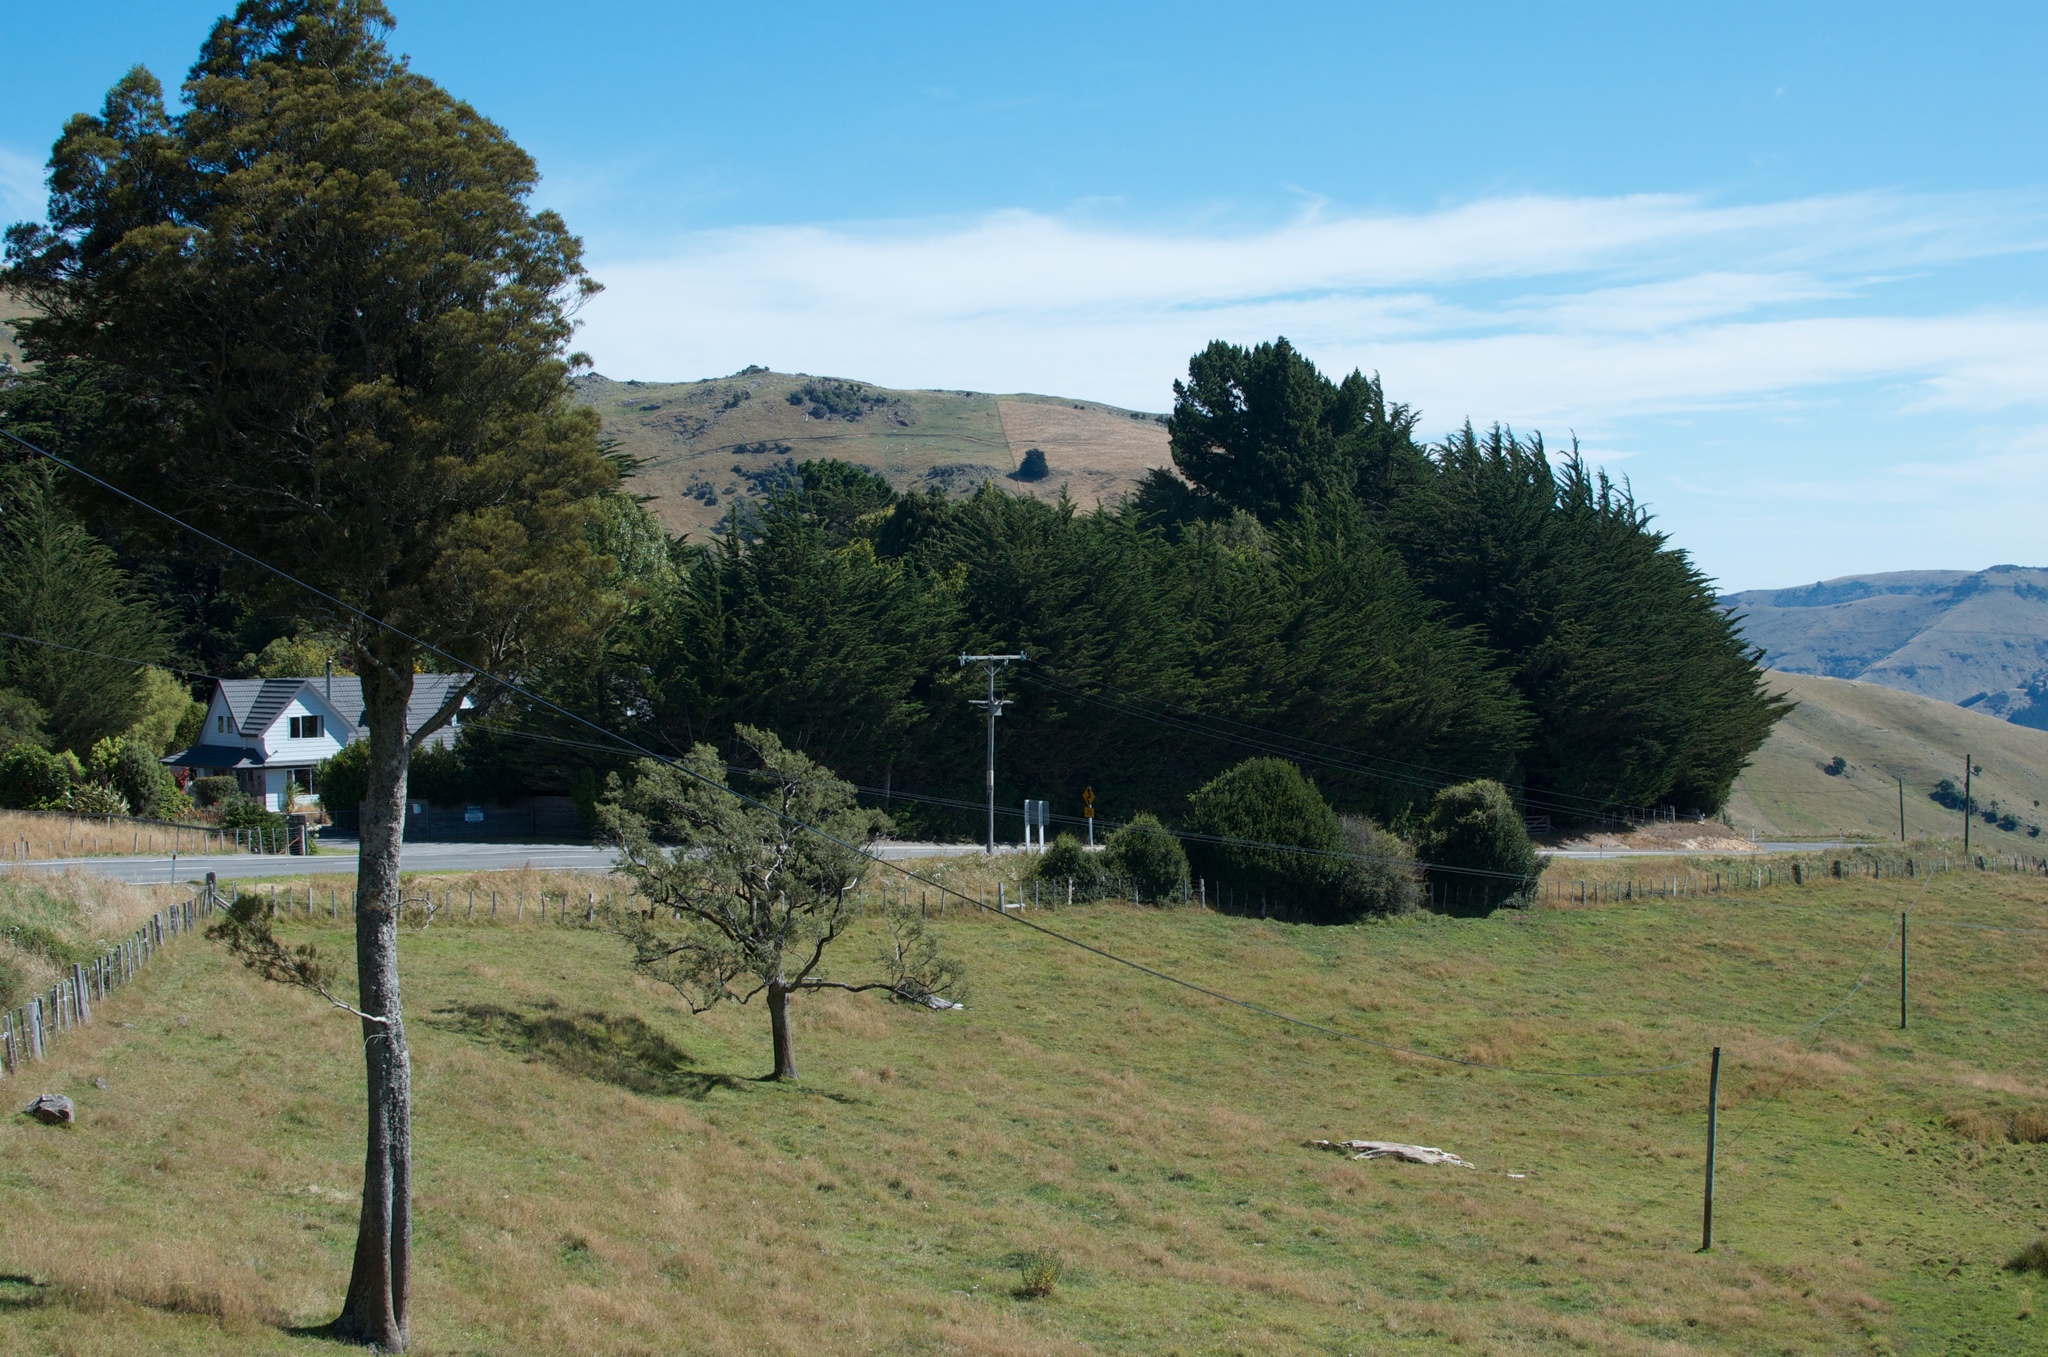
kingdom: Plantae
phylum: Tracheophyta
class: Pinopsida
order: Pinales
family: Podocarpaceae
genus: Dacrycarpus
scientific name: Dacrycarpus dacrydioides
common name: White pine
